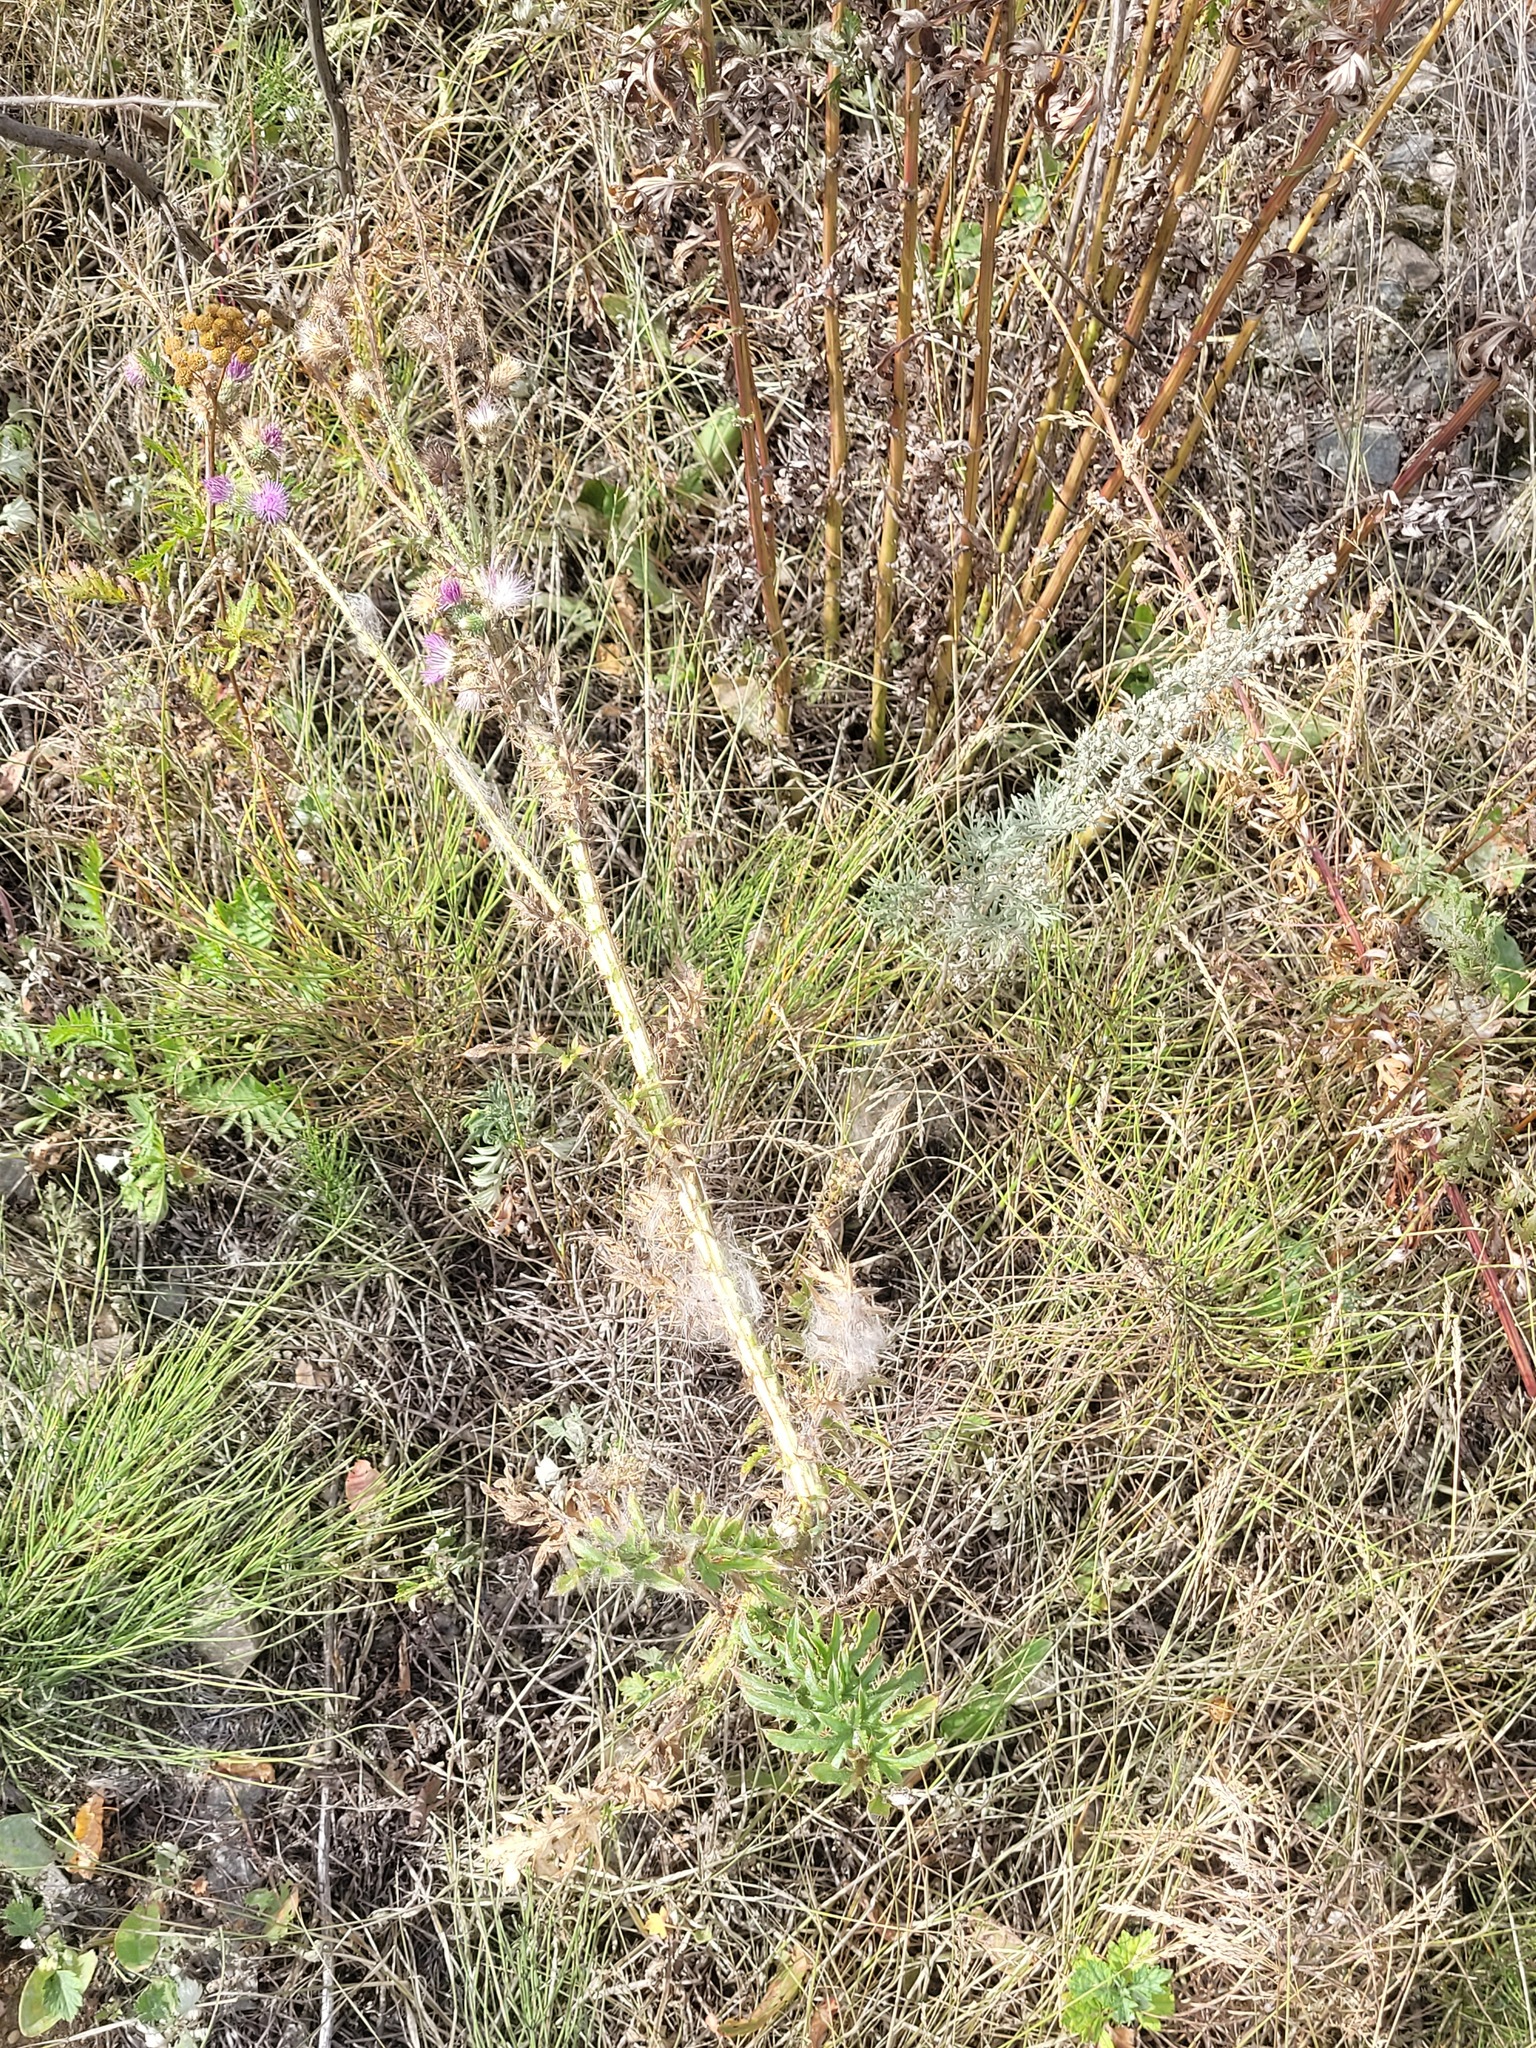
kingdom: Plantae
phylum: Tracheophyta
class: Magnoliopsida
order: Asterales
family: Asteraceae
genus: Carduus
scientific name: Carduus acanthoides
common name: Plumeless thistle
